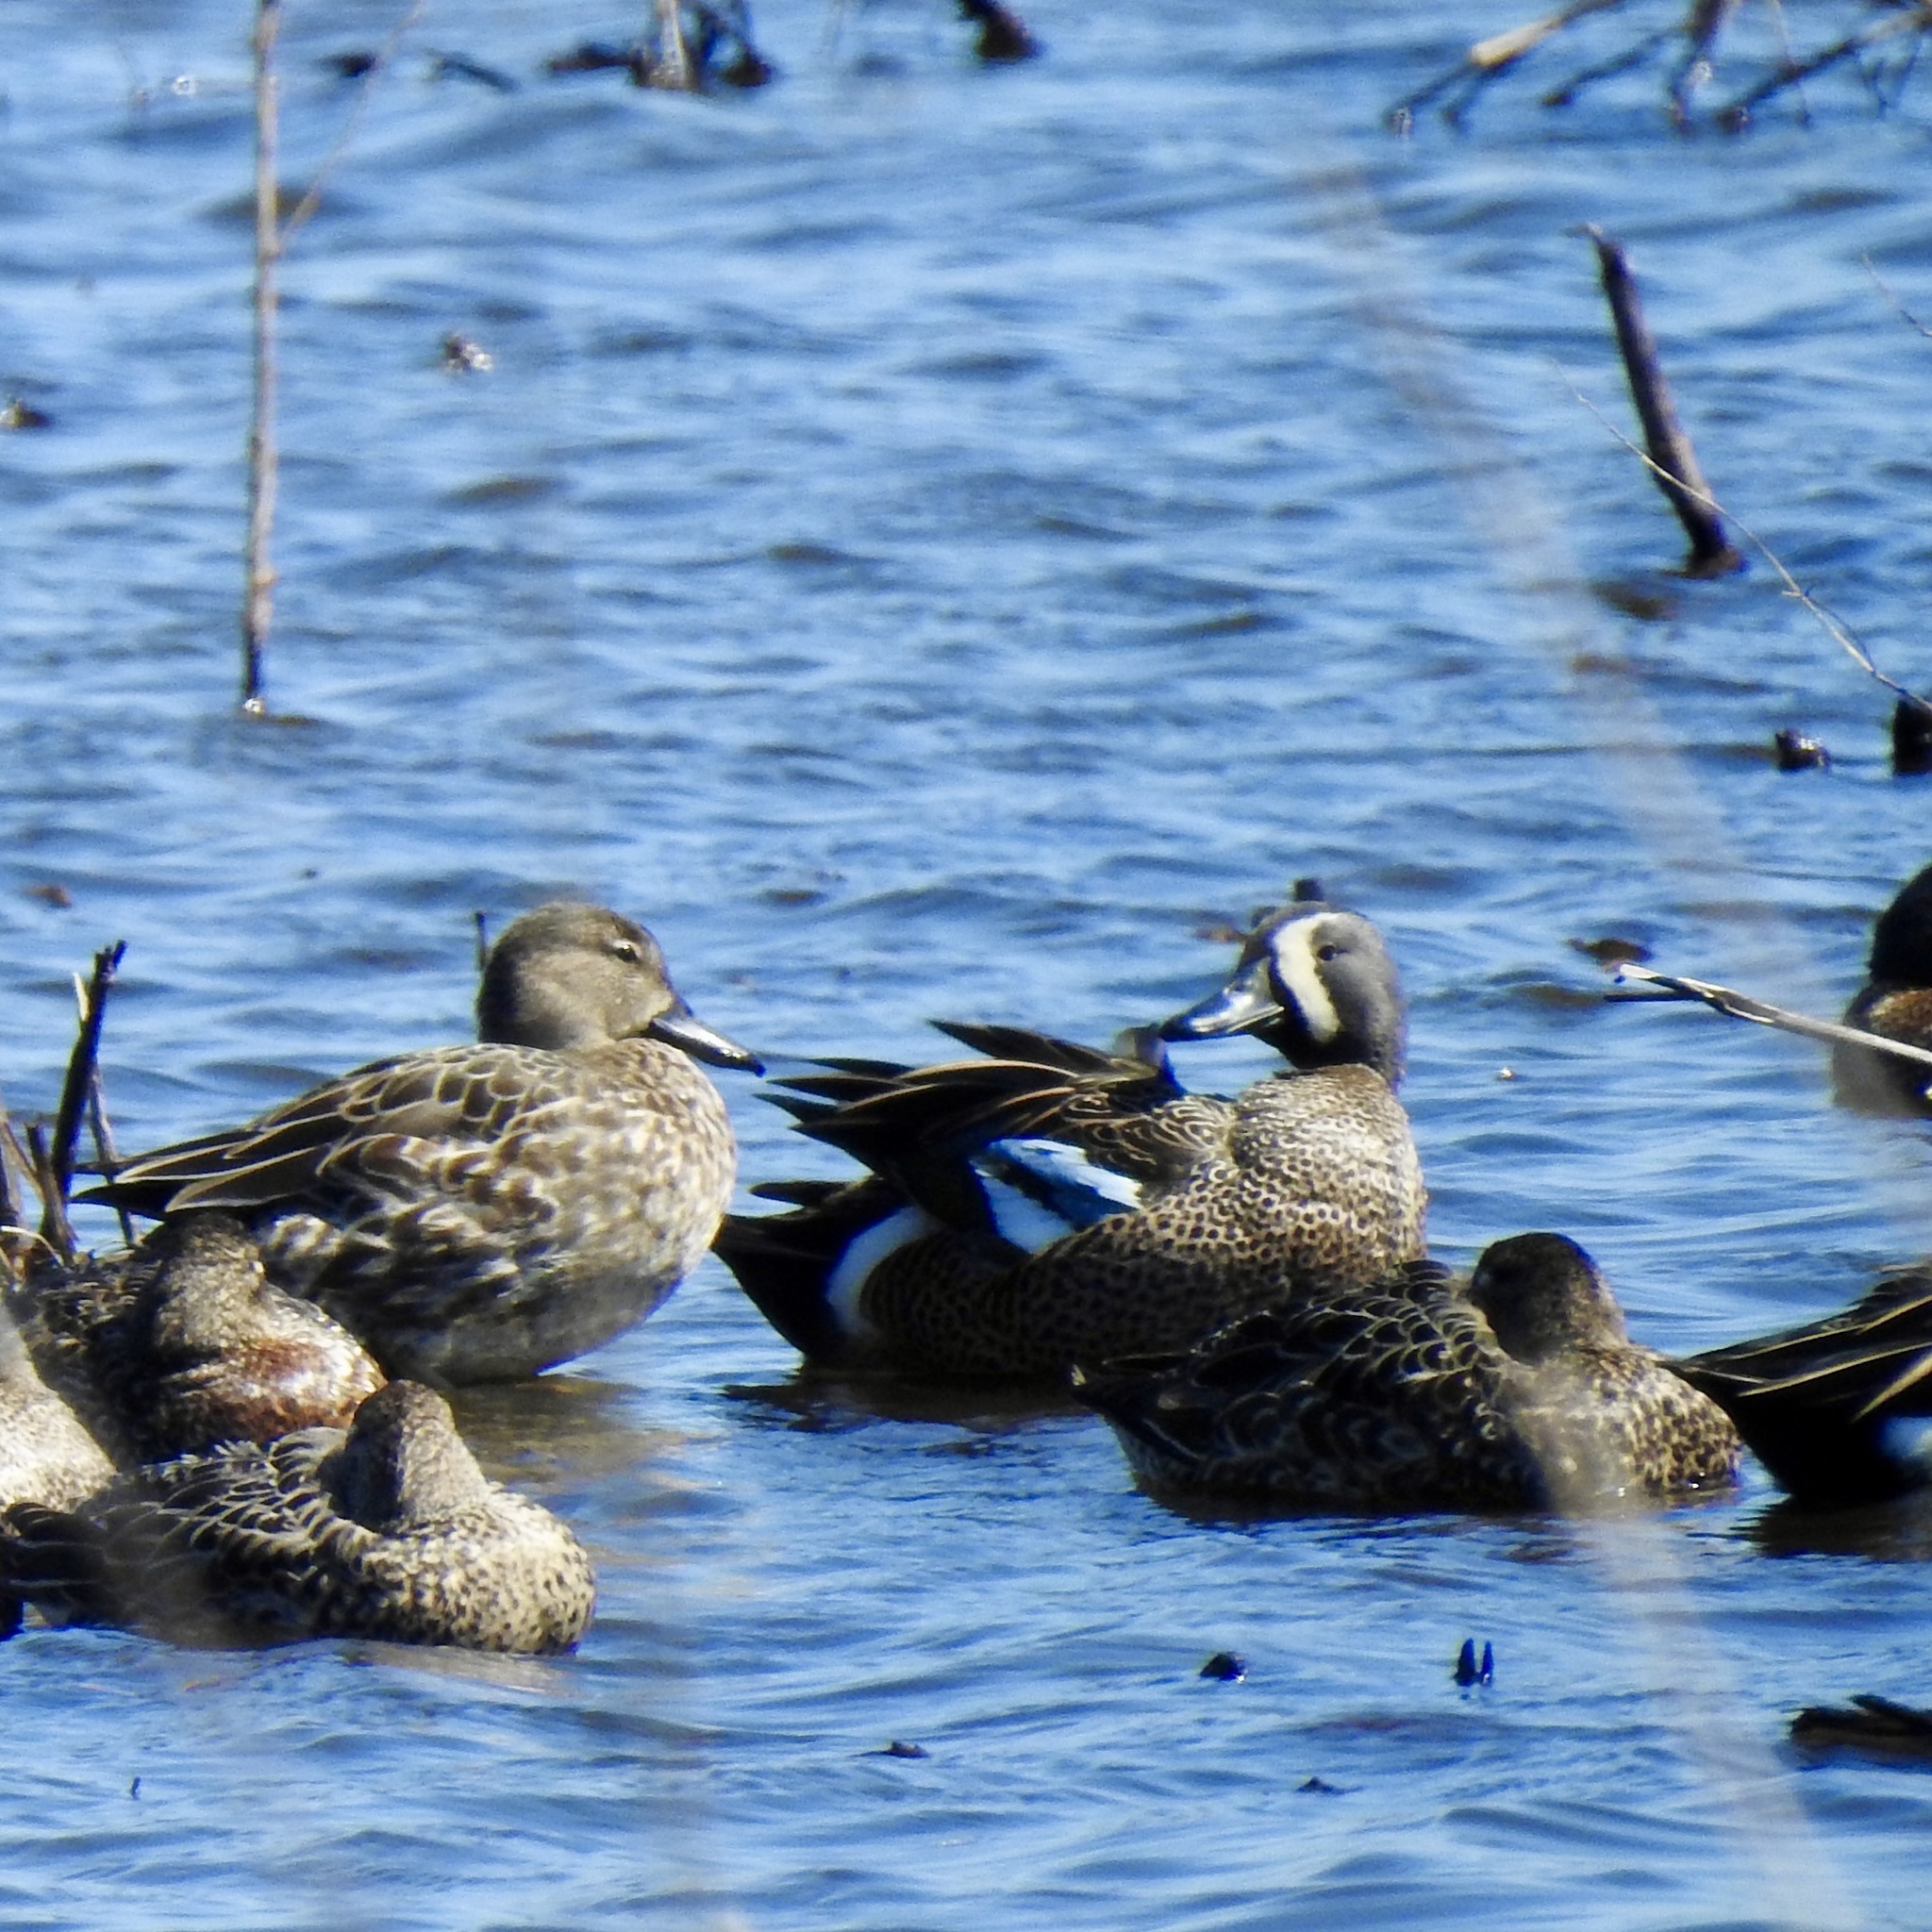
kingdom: Animalia
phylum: Chordata
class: Aves
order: Anseriformes
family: Anatidae
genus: Spatula
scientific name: Spatula discors
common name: Blue-winged teal
